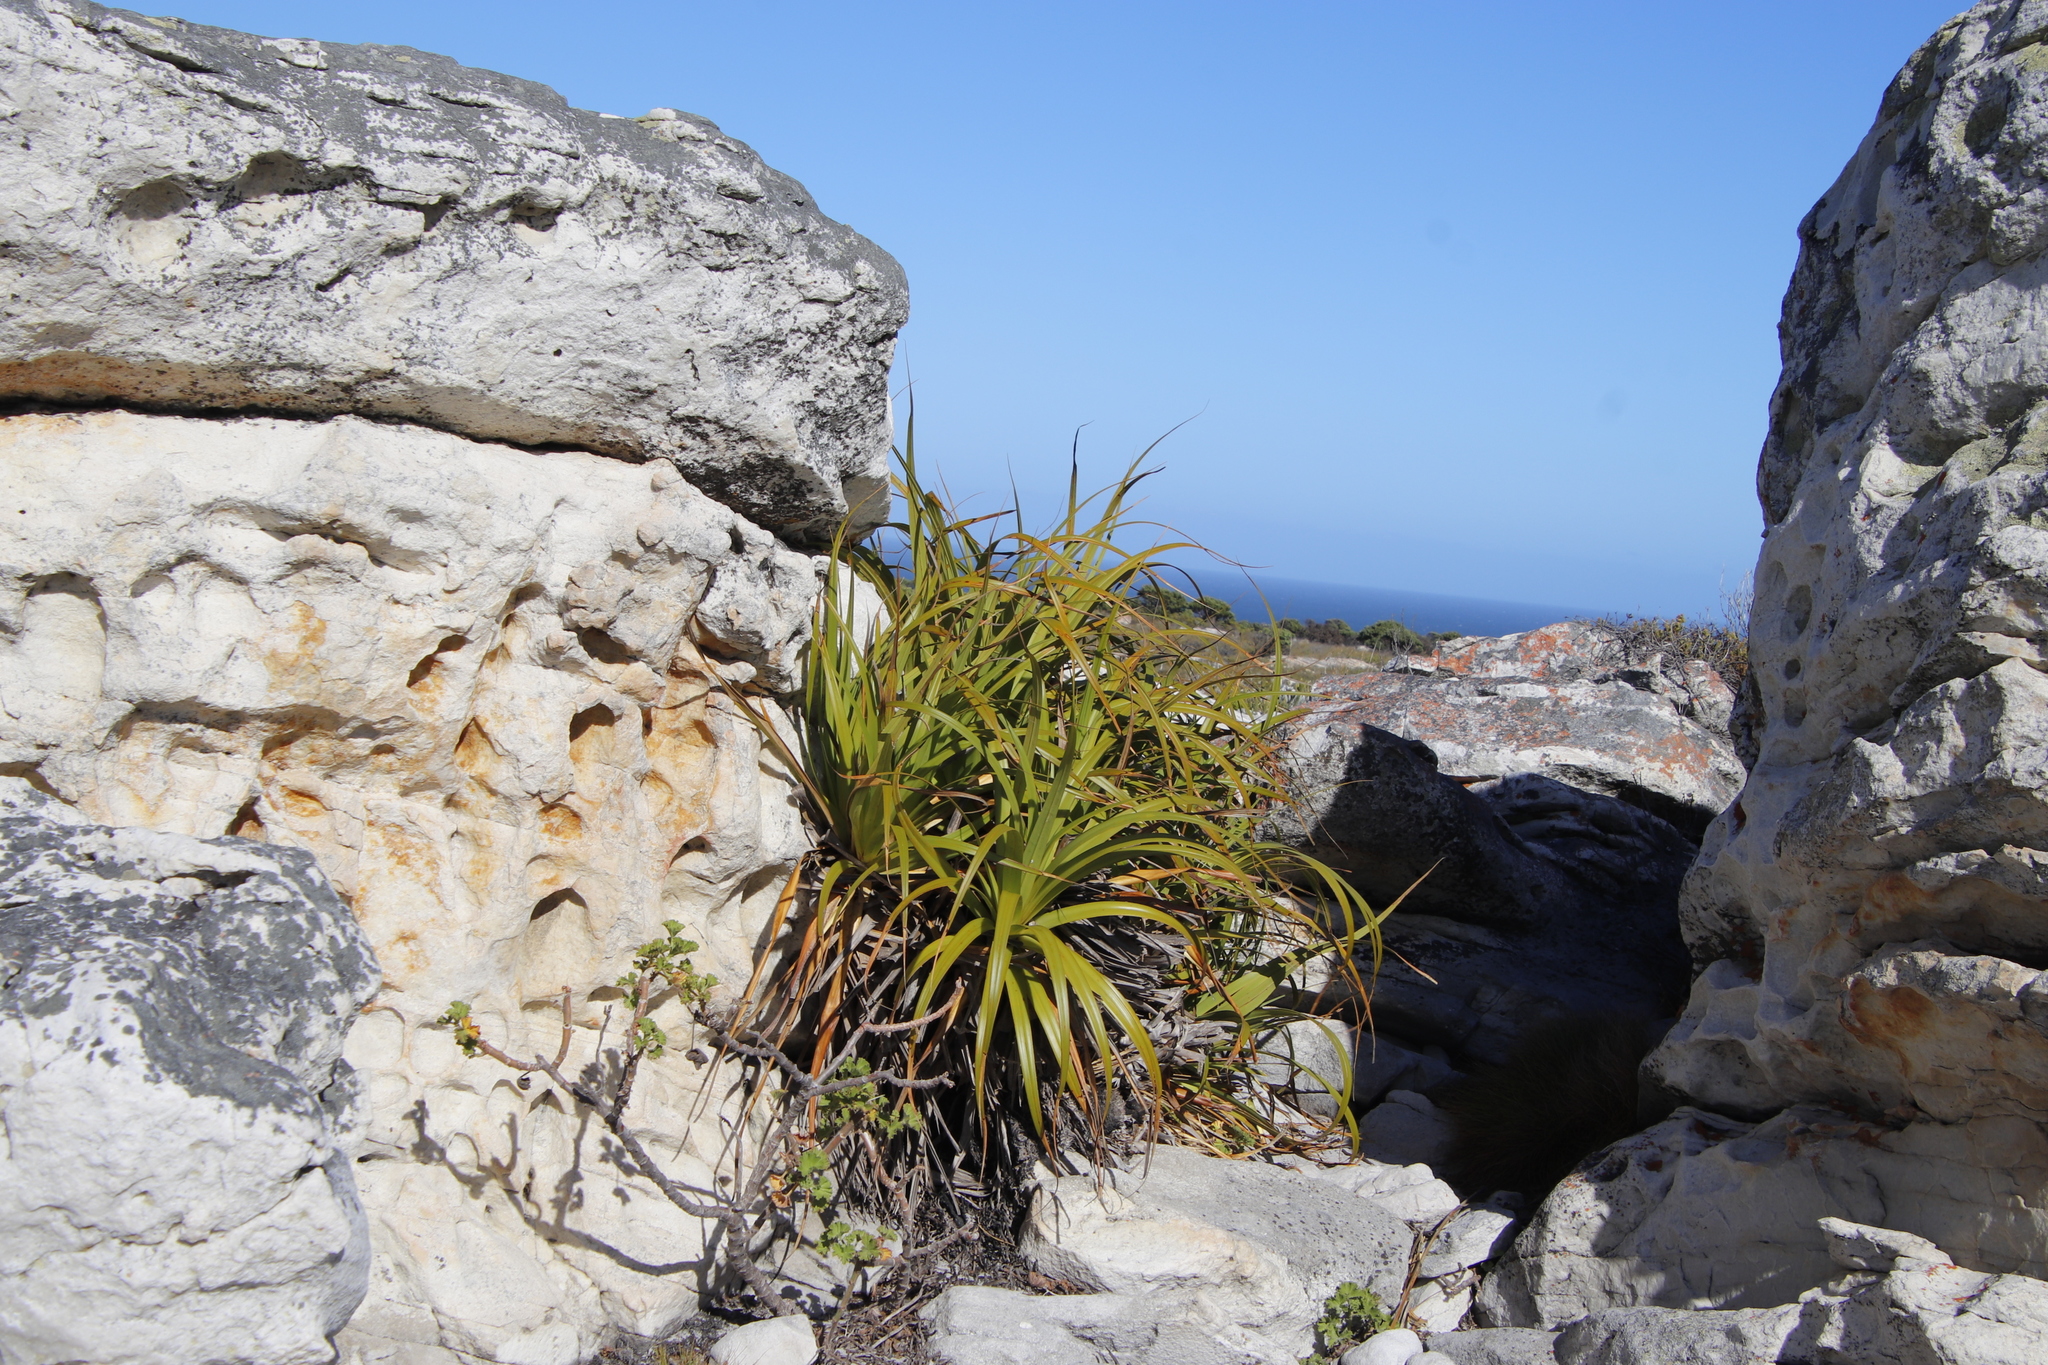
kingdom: Plantae
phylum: Tracheophyta
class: Liliopsida
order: Poales
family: Cyperaceae
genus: Tetraria
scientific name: Tetraria thermalis
